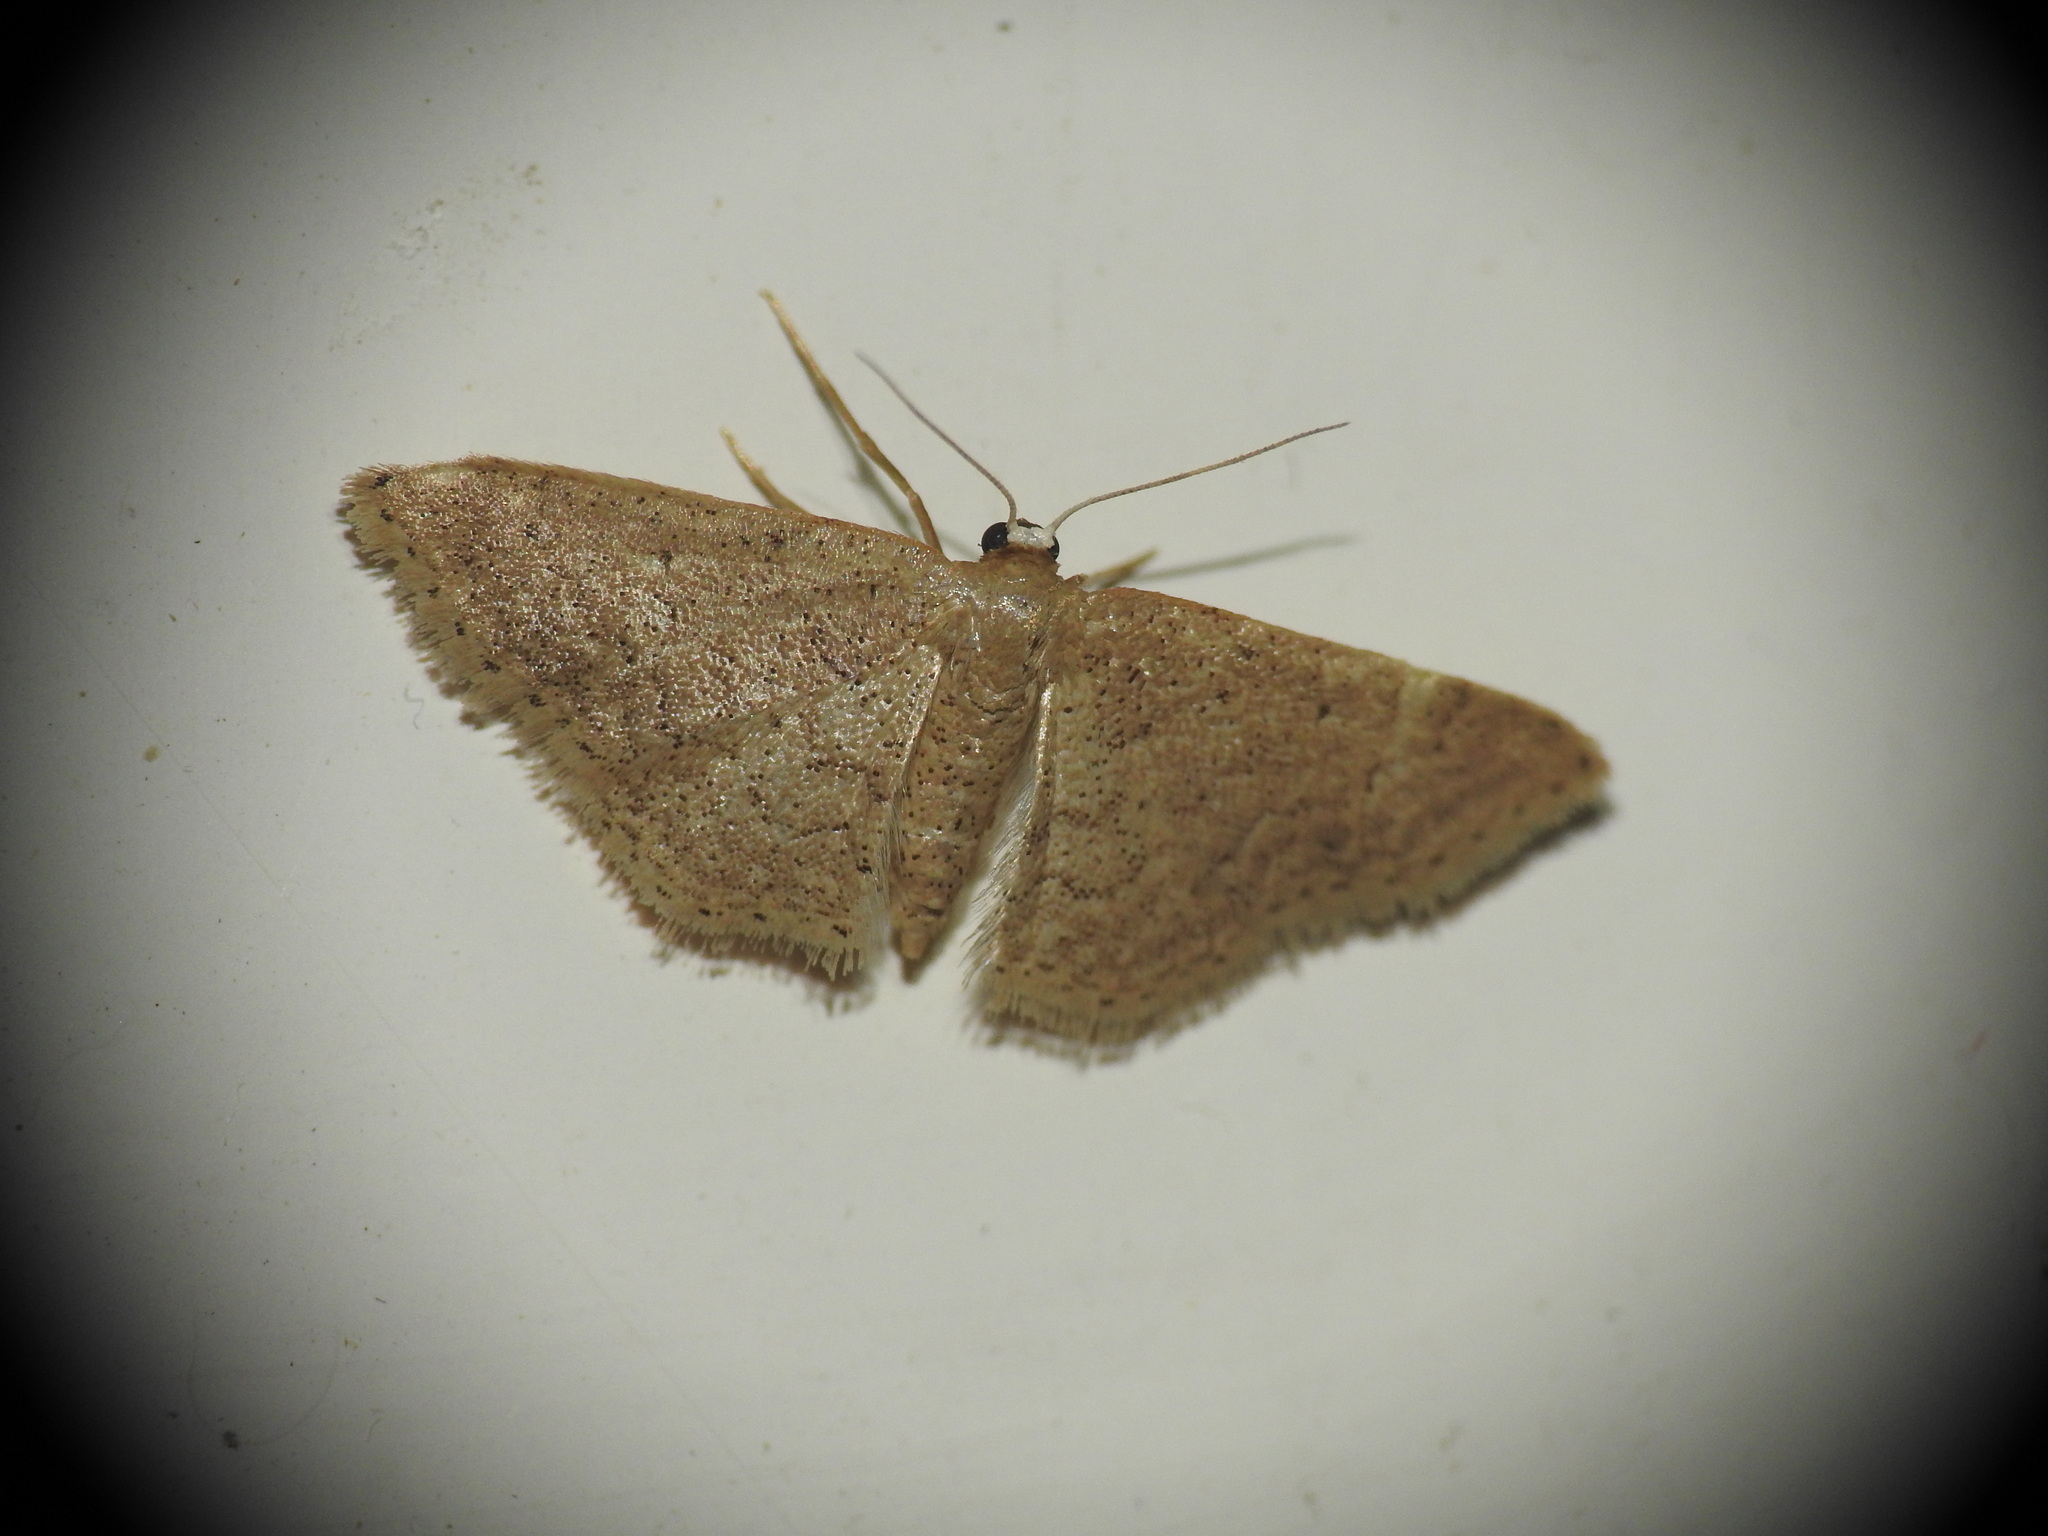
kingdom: Animalia
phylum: Arthropoda
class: Insecta
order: Lepidoptera
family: Geometridae
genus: Idaea
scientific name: Idaea obsoletaria
